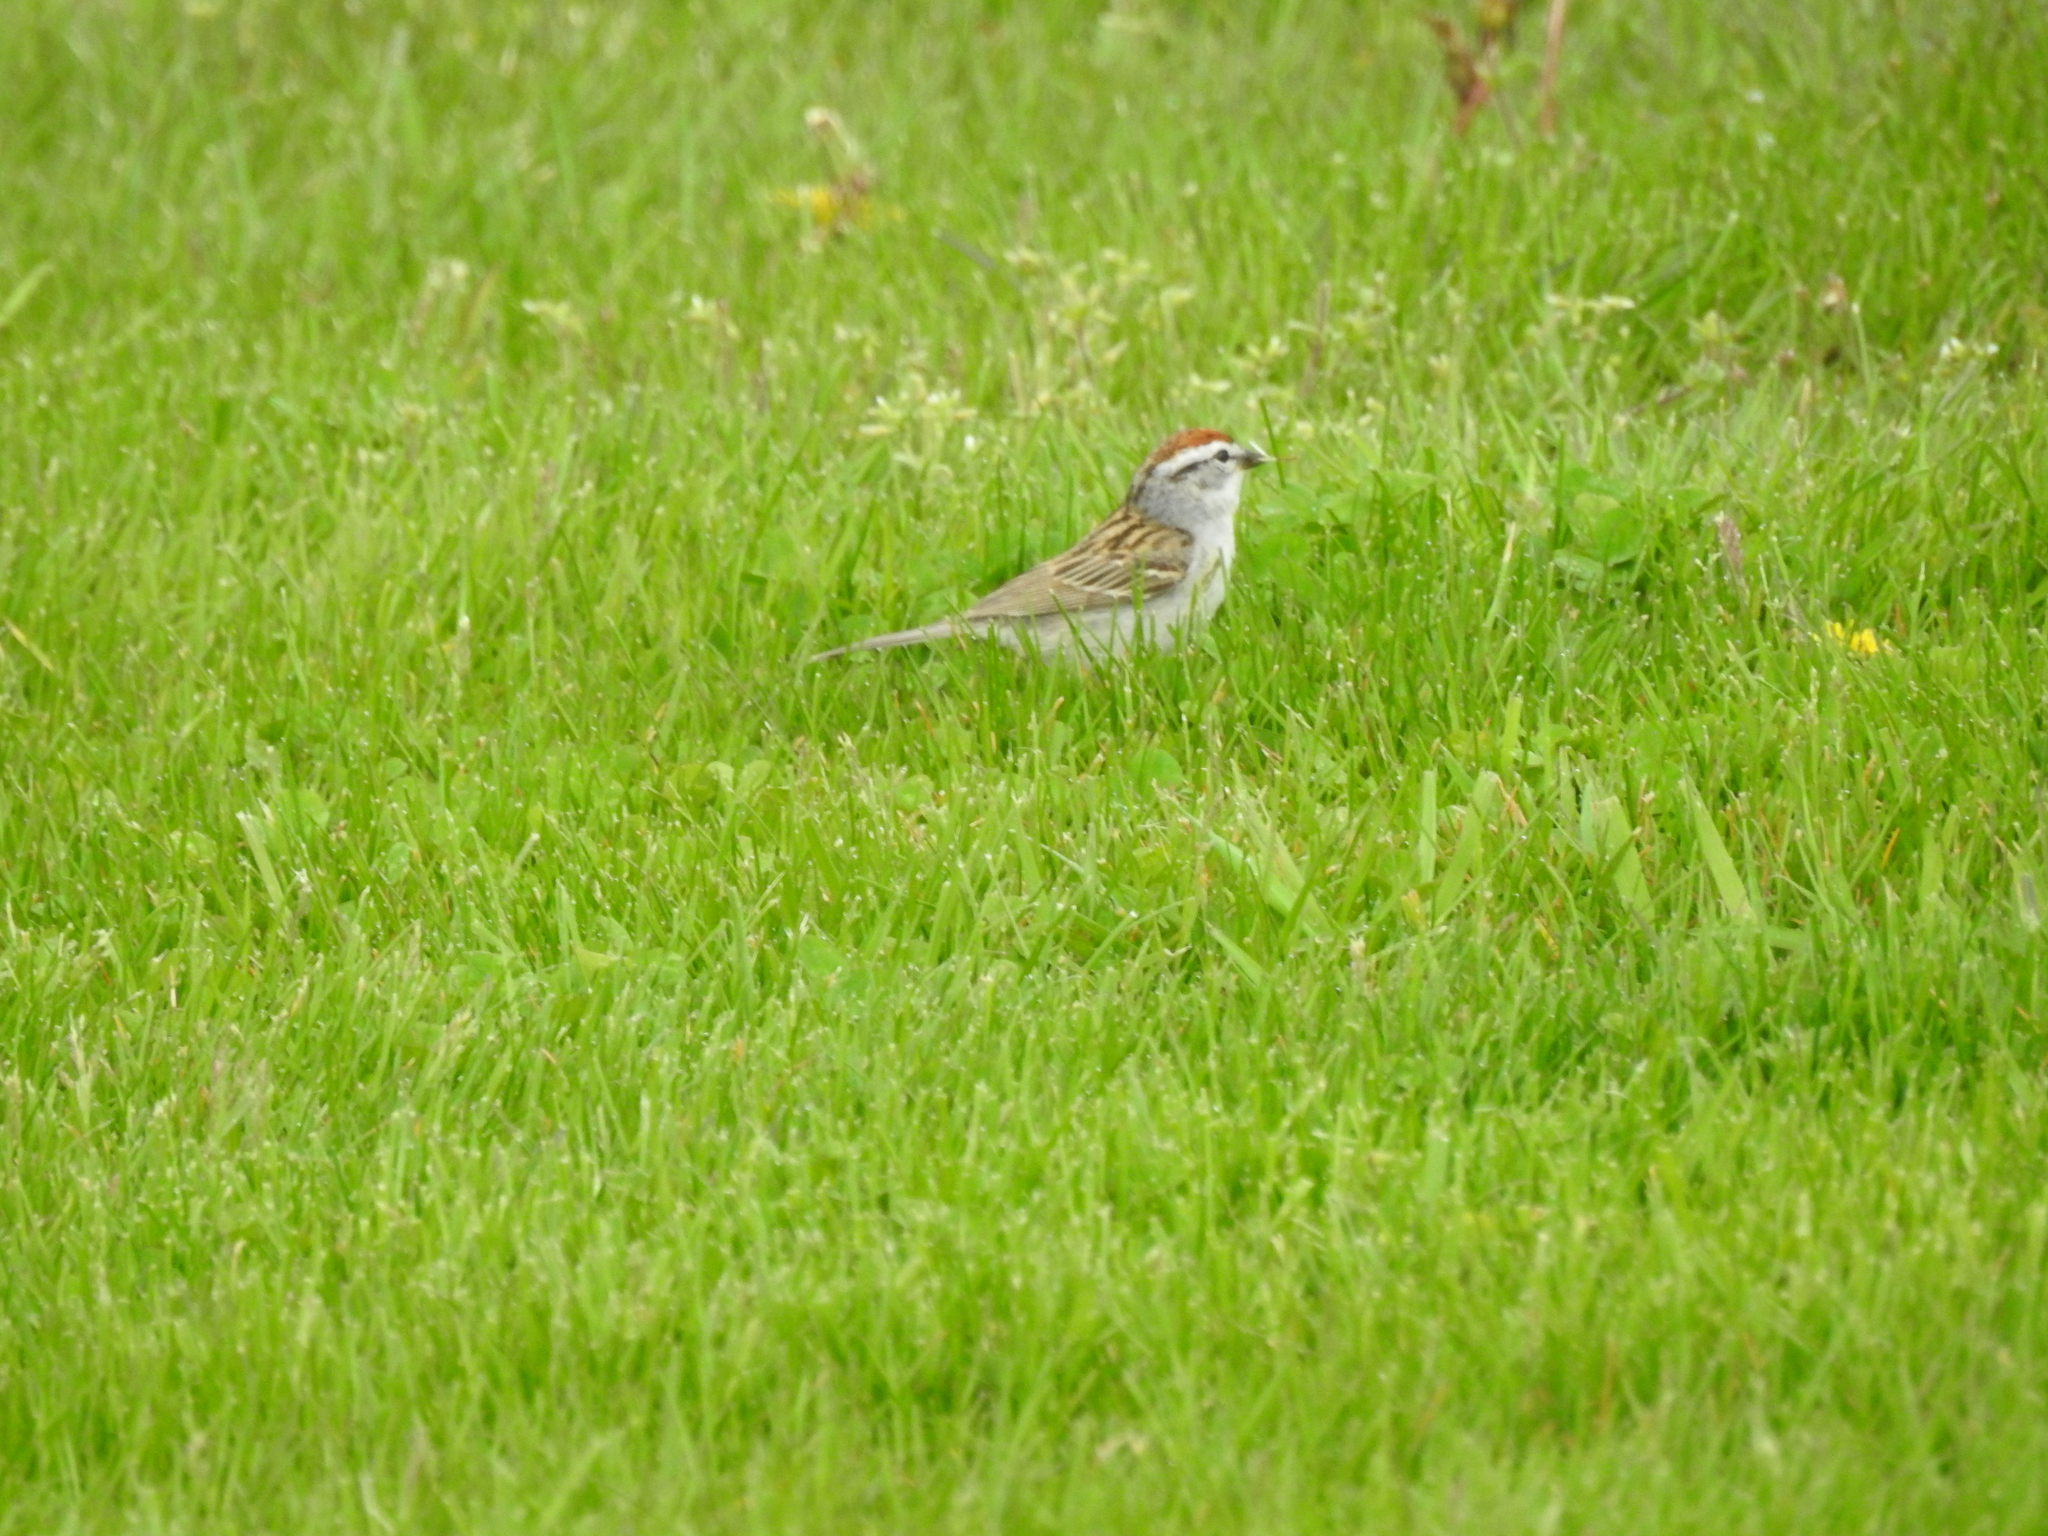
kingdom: Animalia
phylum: Chordata
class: Aves
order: Passeriformes
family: Passerellidae
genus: Spizella
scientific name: Spizella passerina
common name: Chipping sparrow
